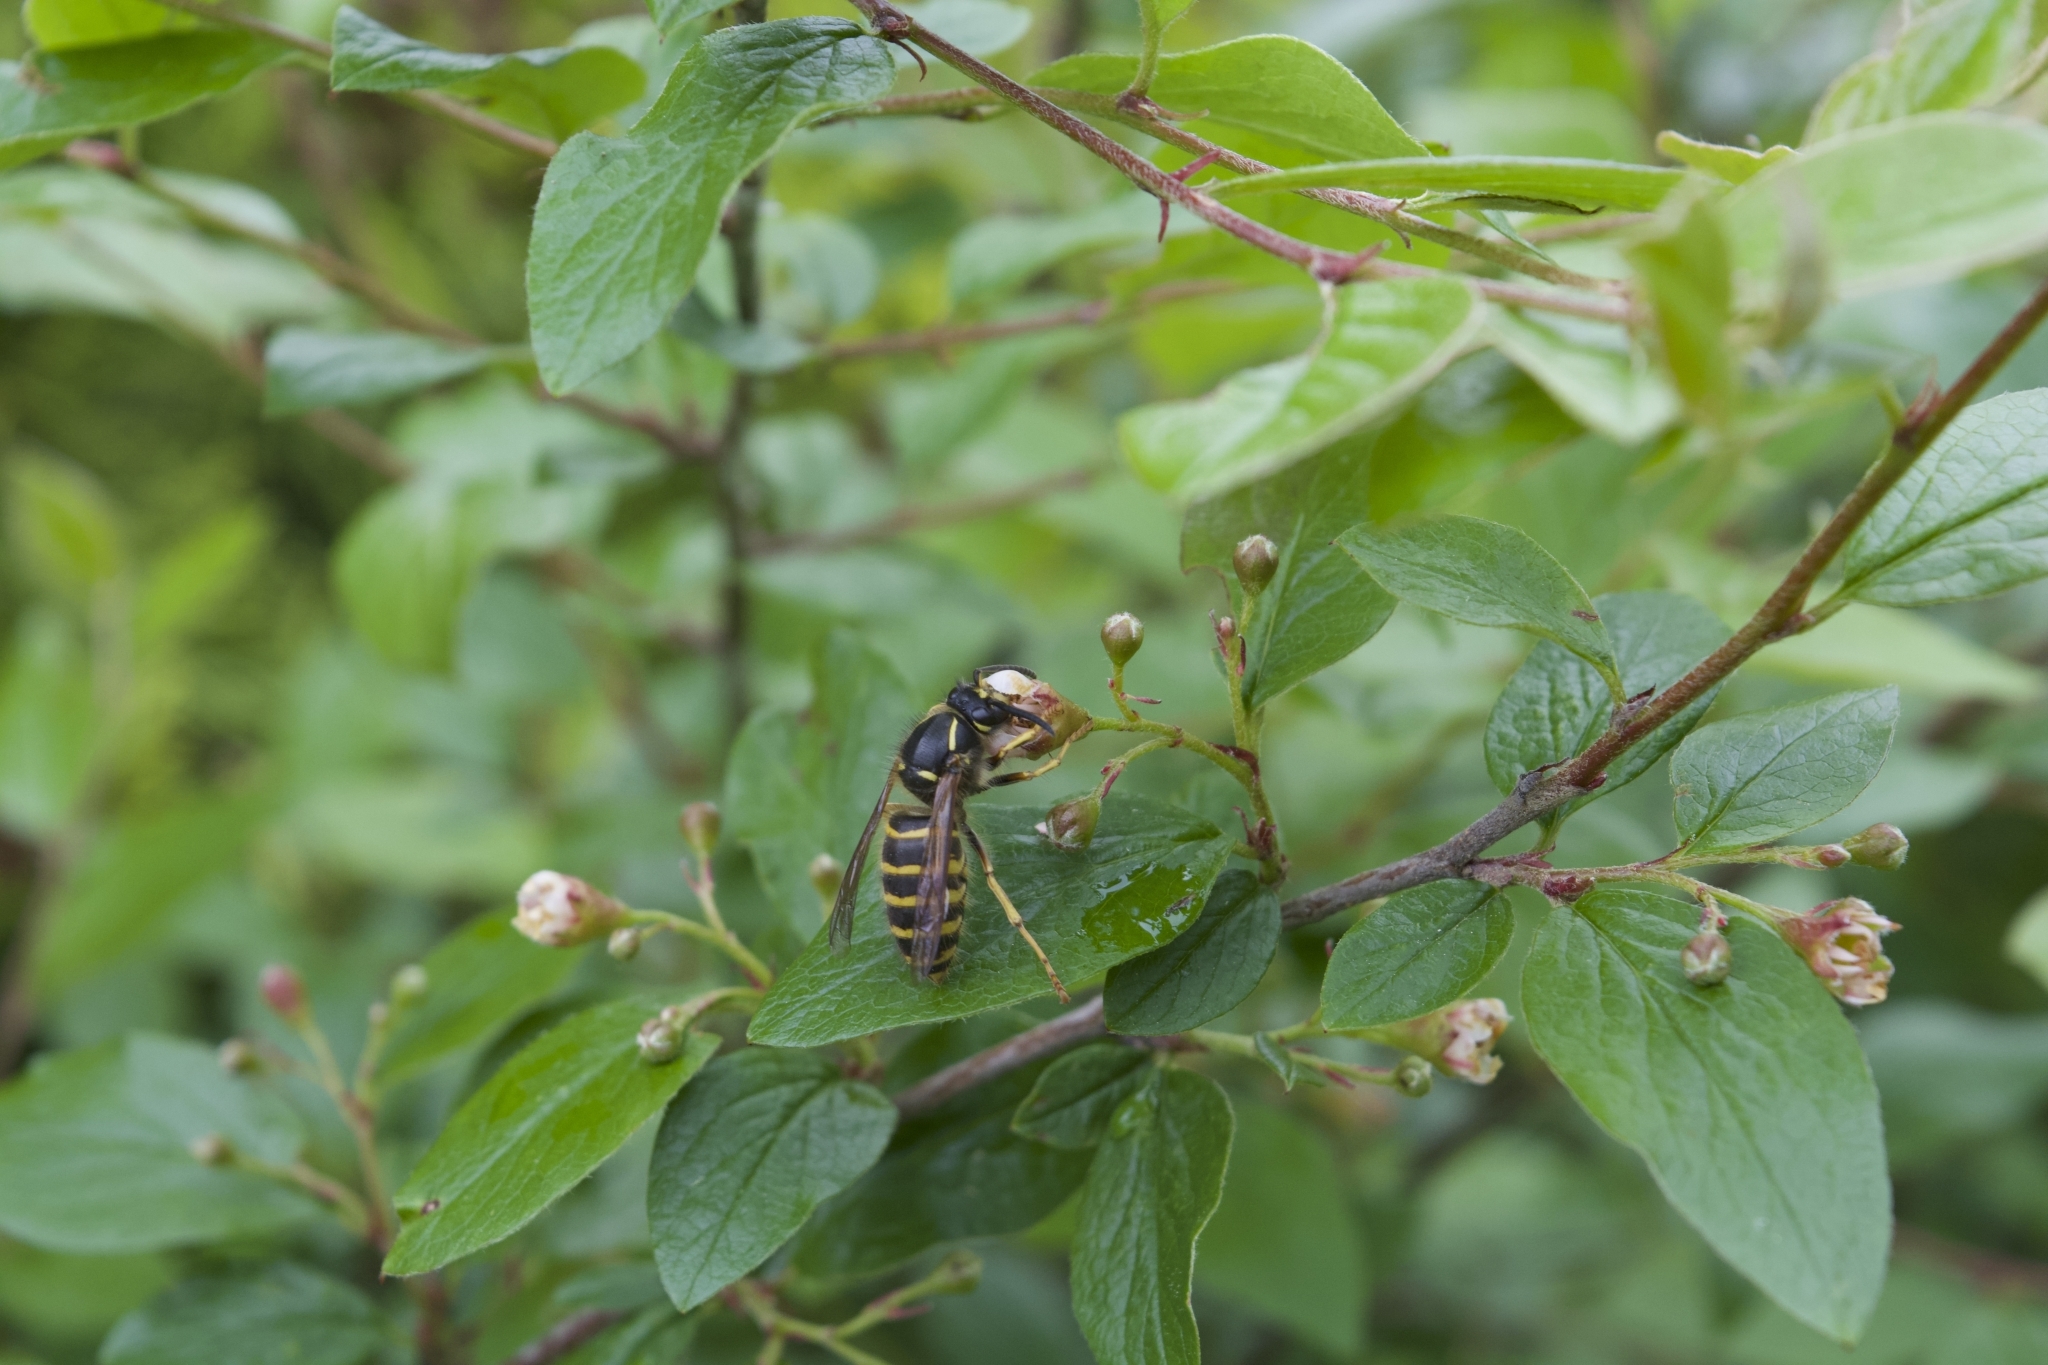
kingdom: Animalia
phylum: Arthropoda
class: Insecta
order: Hymenoptera
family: Vespidae
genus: Vespula
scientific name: Vespula vulgaris
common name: Common wasp
